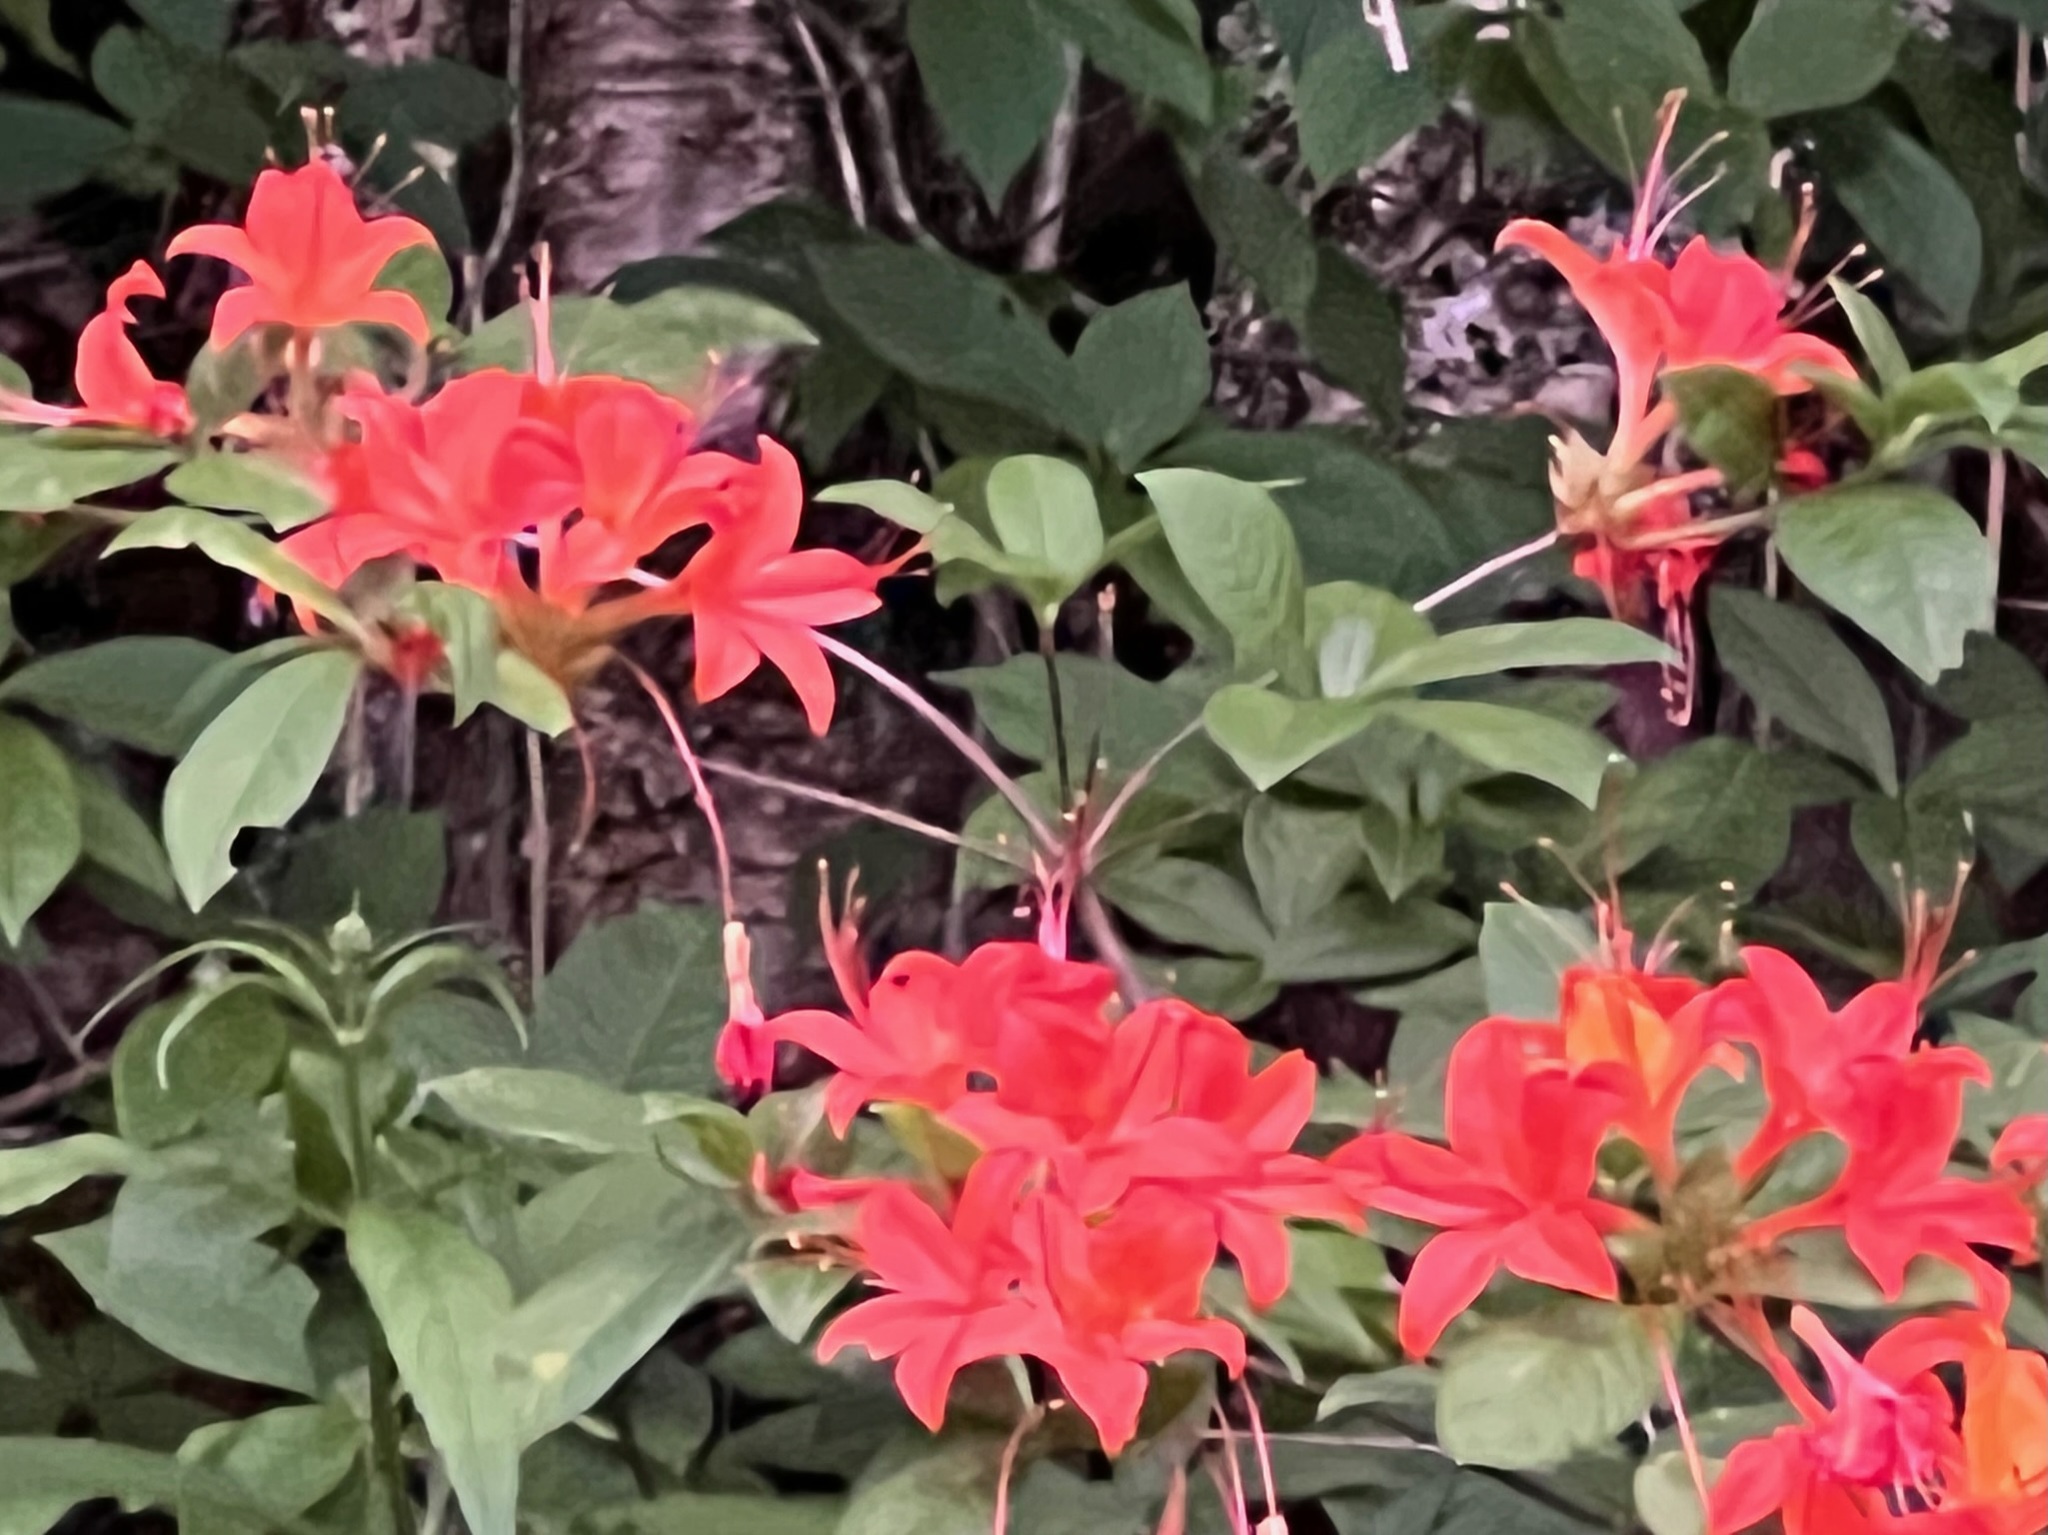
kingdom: Plantae
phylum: Tracheophyta
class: Magnoliopsida
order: Ericales
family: Ericaceae
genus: Rhododendron
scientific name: Rhododendron calendulaceum
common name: Flame azalea
